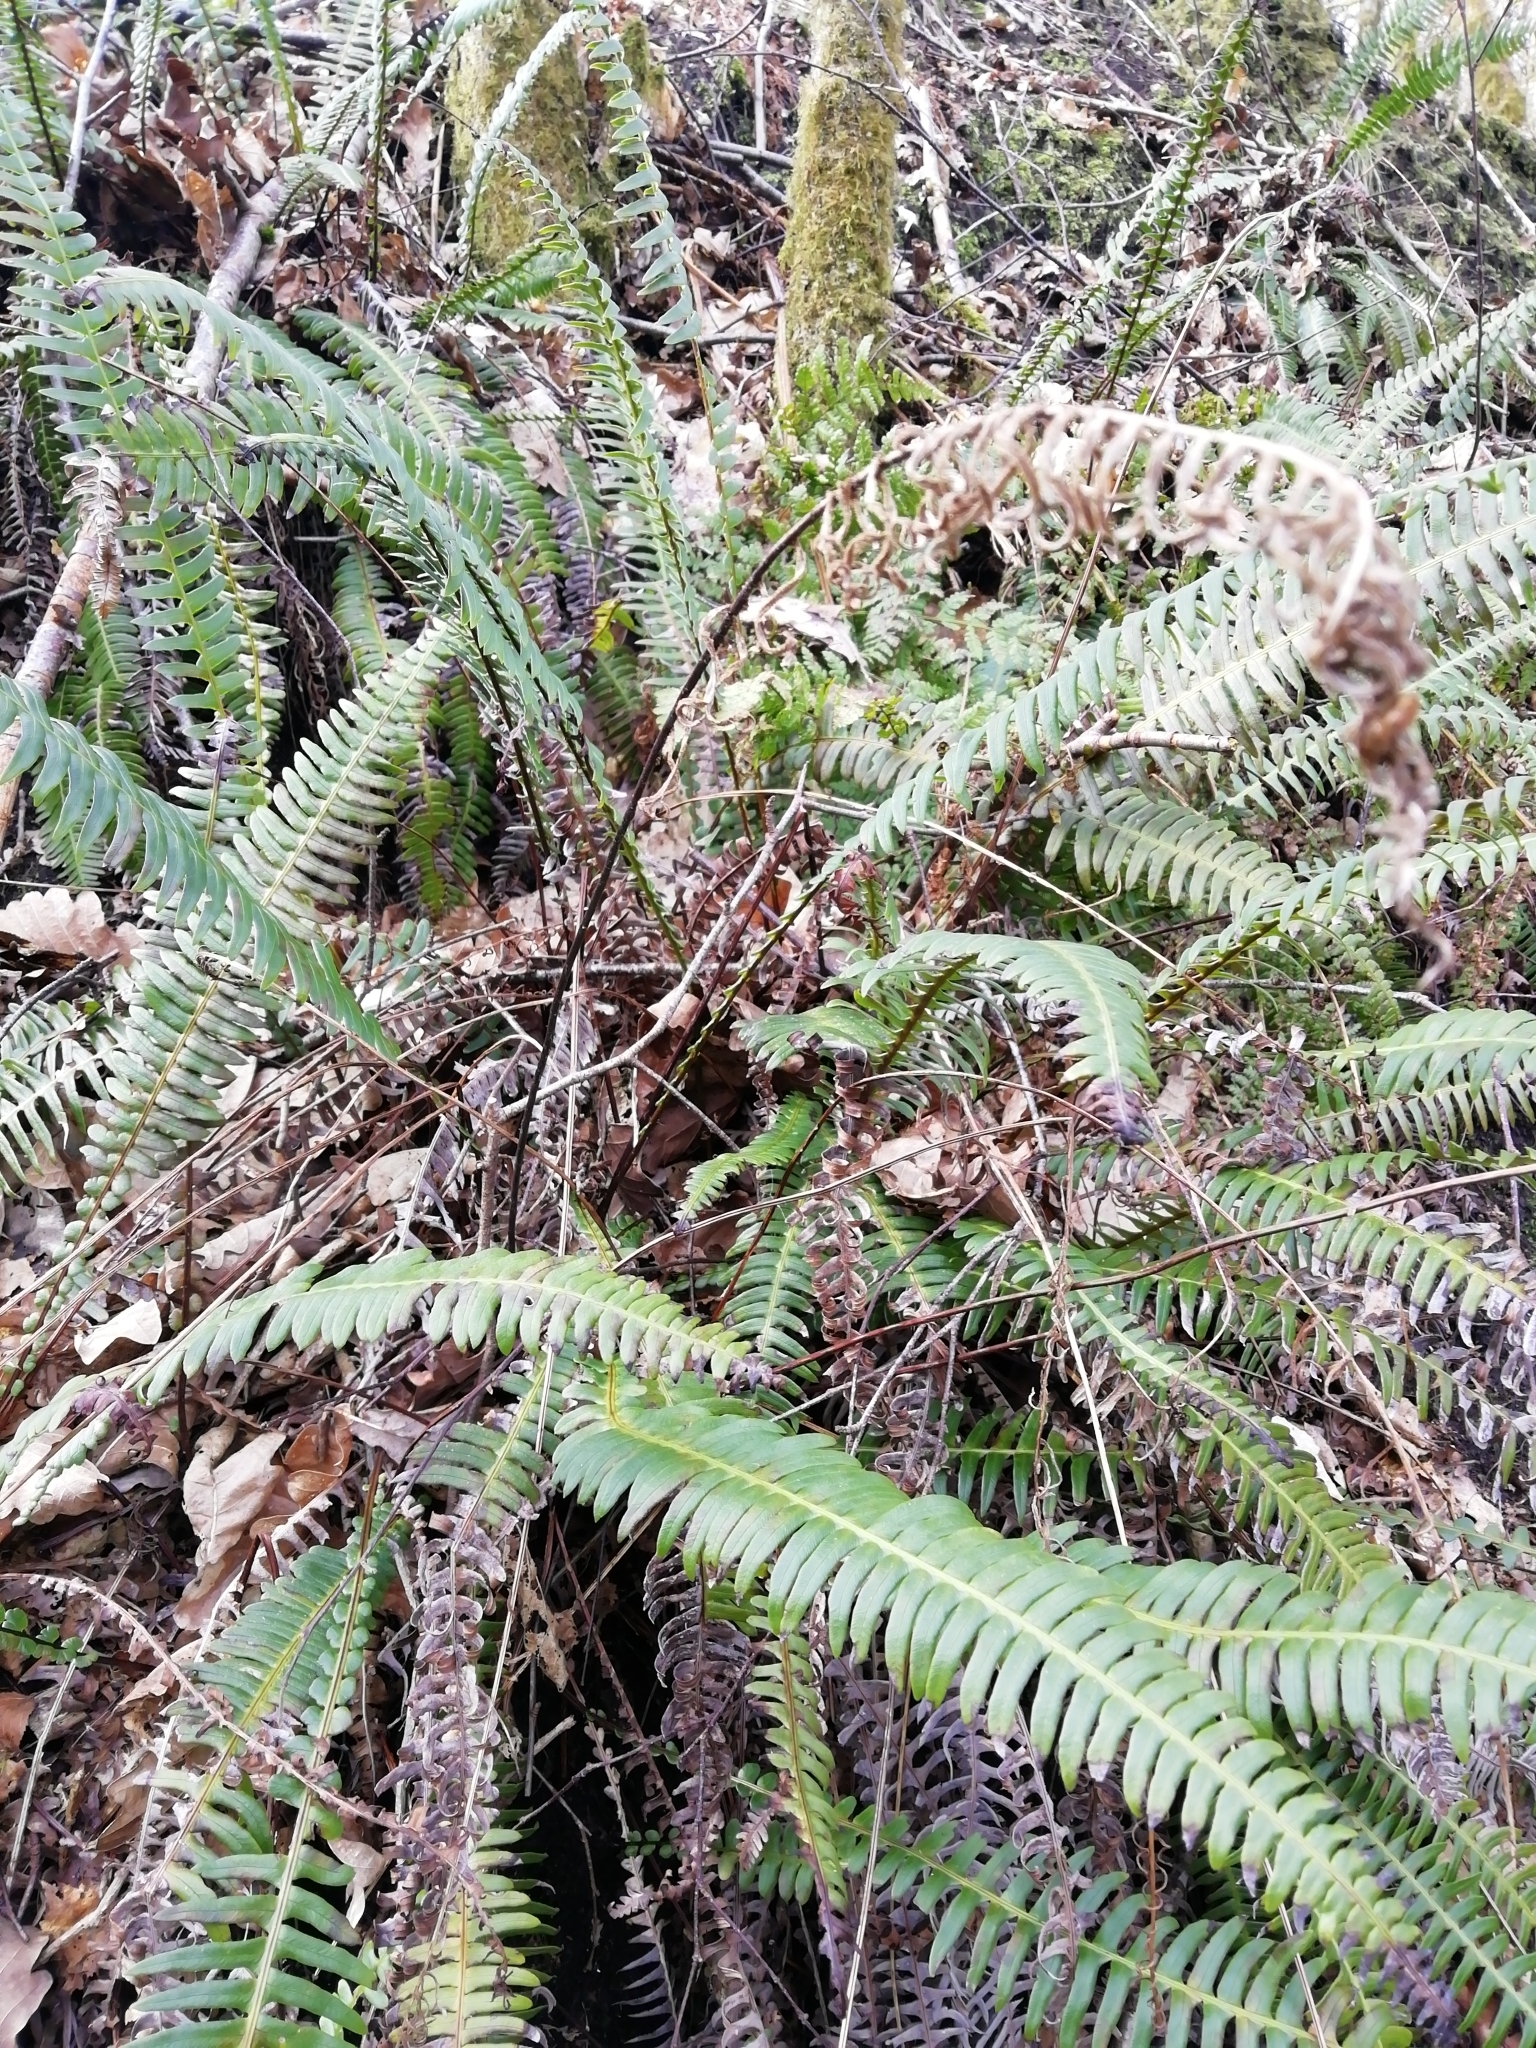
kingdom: Plantae
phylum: Tracheophyta
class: Polypodiopsida
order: Polypodiales
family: Blechnaceae
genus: Struthiopteris
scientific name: Struthiopteris spicant
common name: Deer fern
